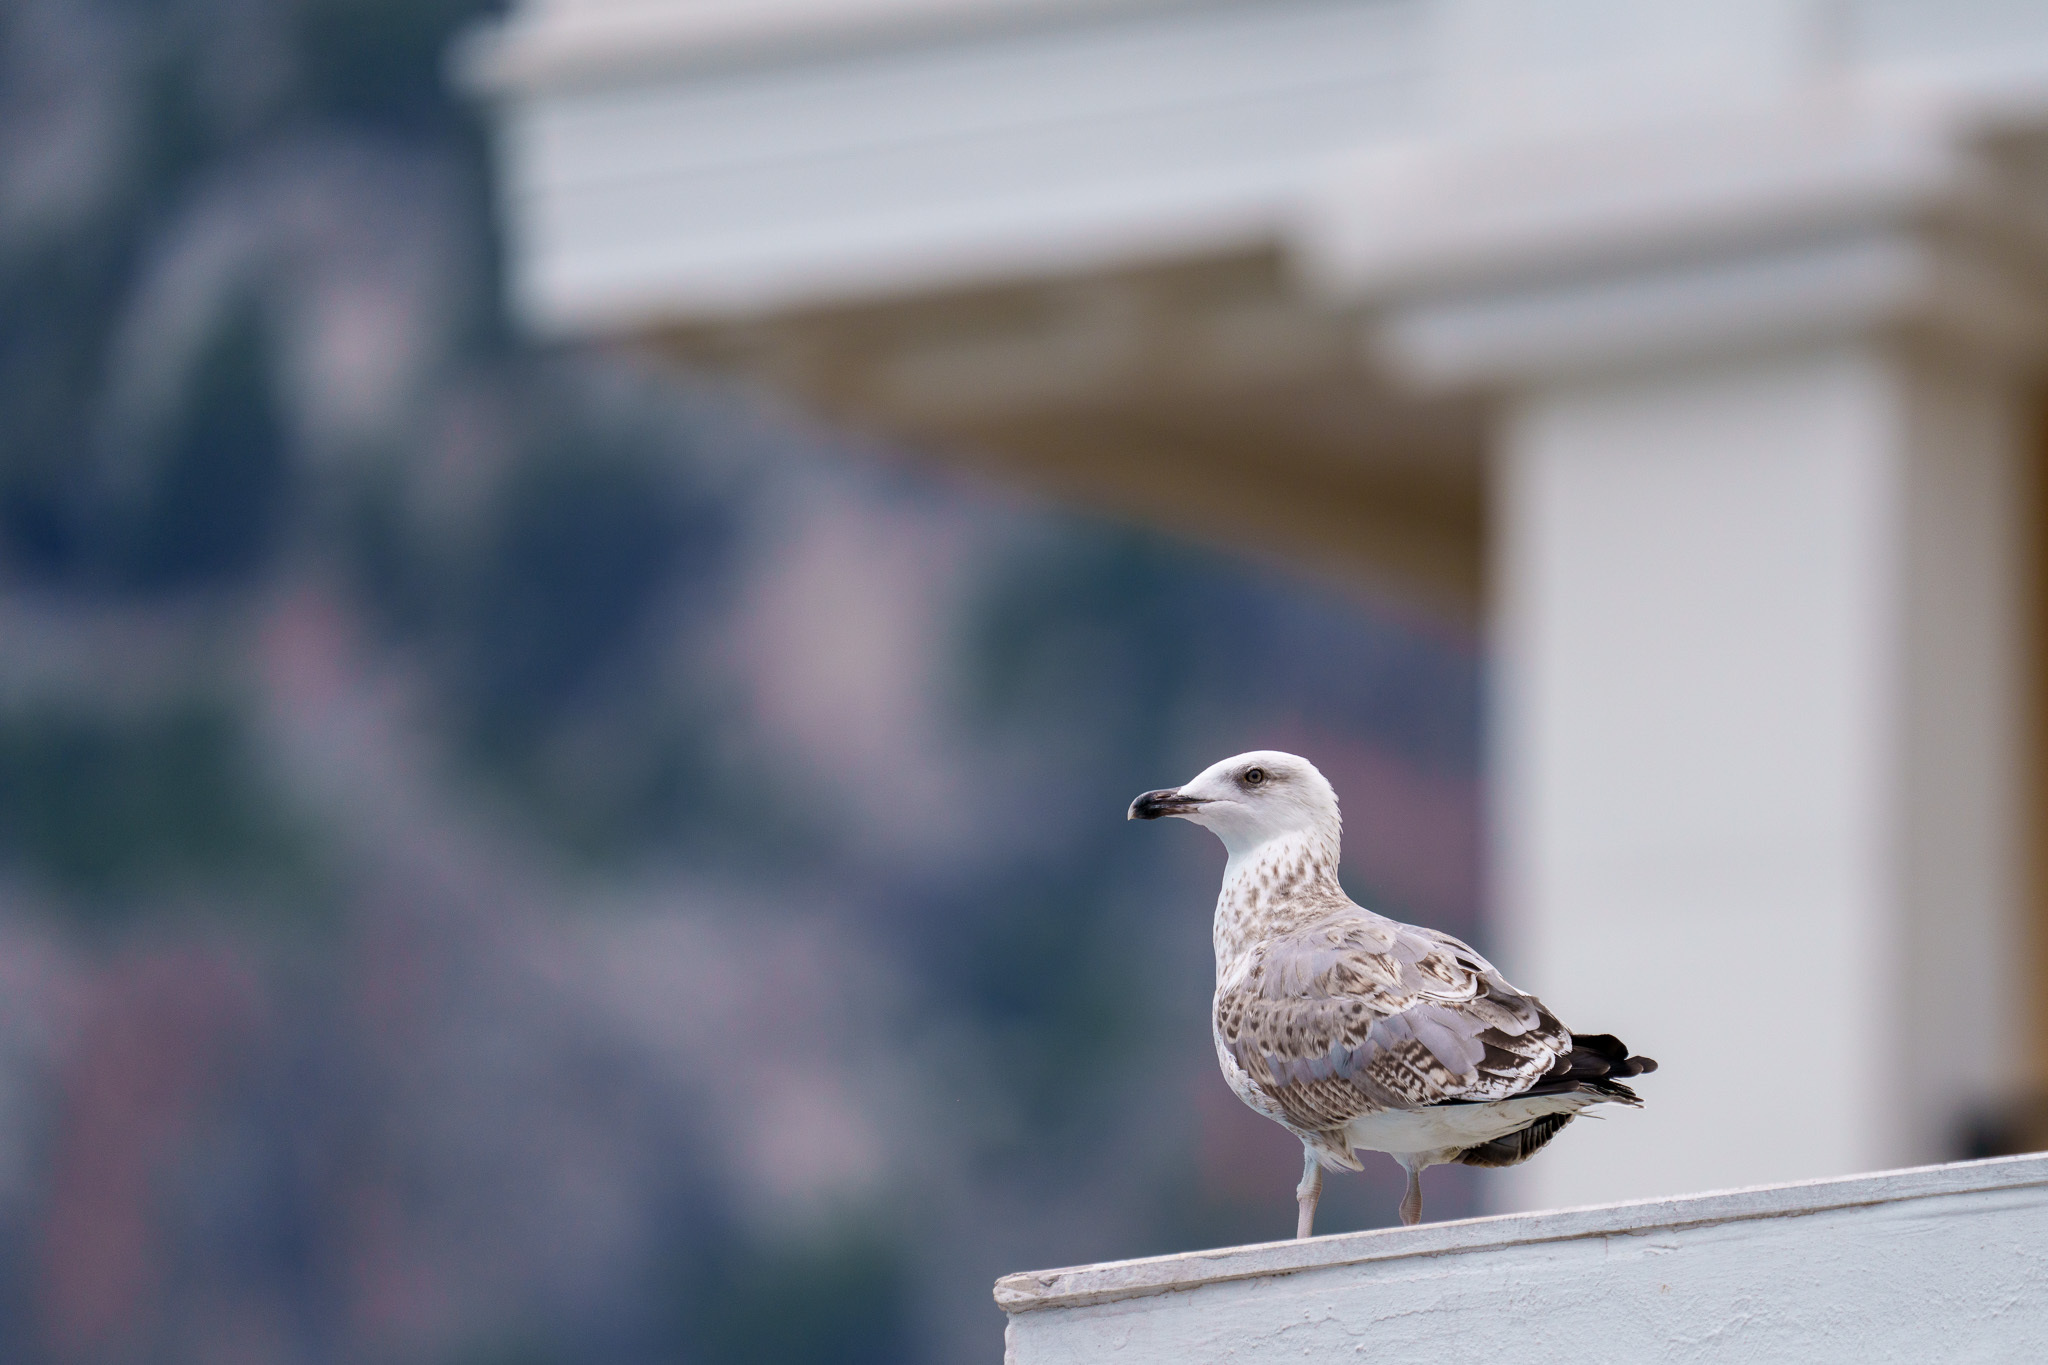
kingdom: Animalia
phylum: Chordata
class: Aves
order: Charadriiformes
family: Laridae
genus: Larus
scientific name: Larus michahellis
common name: Yellow-legged gull
